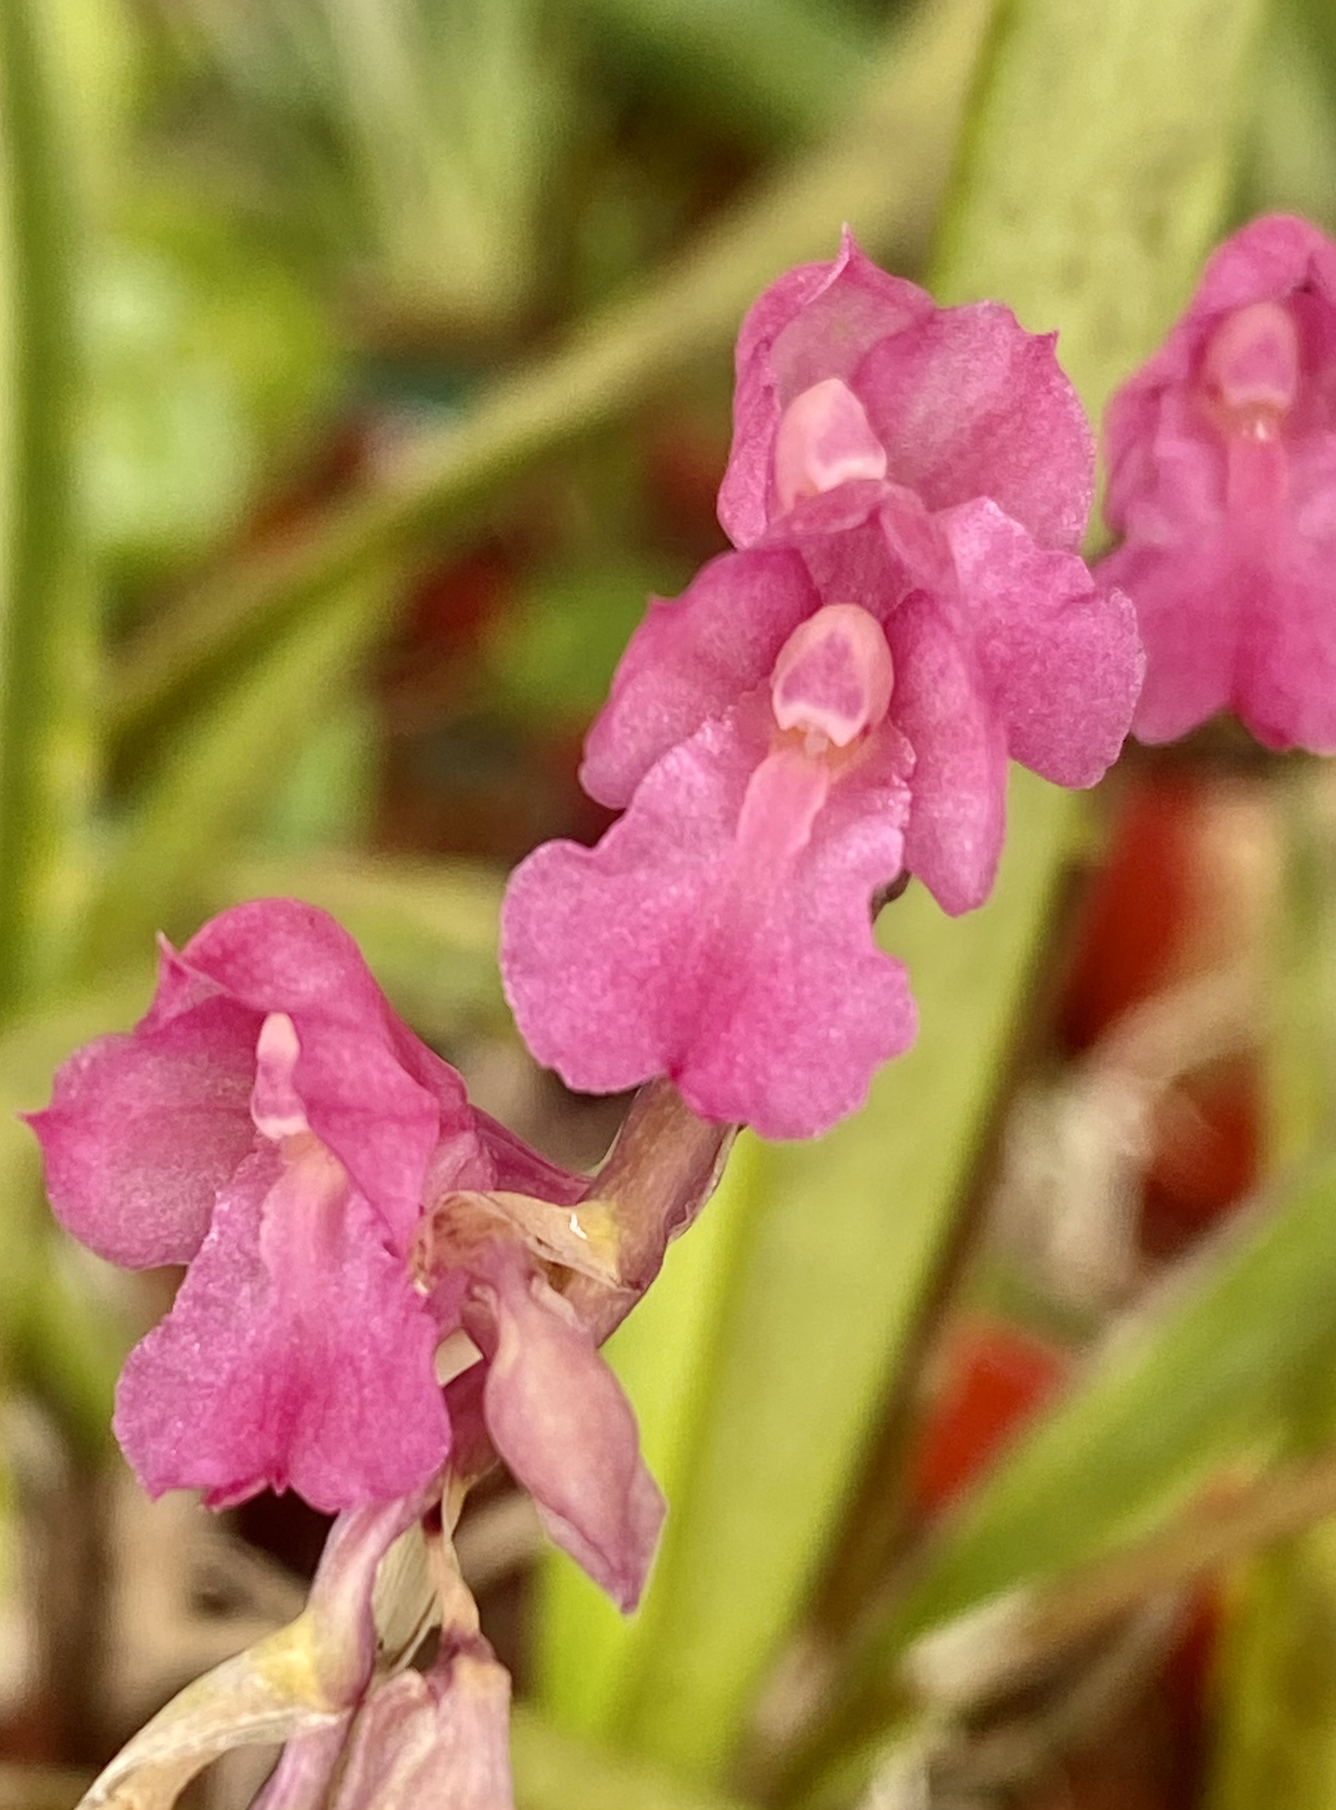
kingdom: Plantae
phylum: Tracheophyta
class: Liliopsida
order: Asparagales
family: Orchidaceae
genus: Rodriguezia
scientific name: Rodriguezia lanceolata
